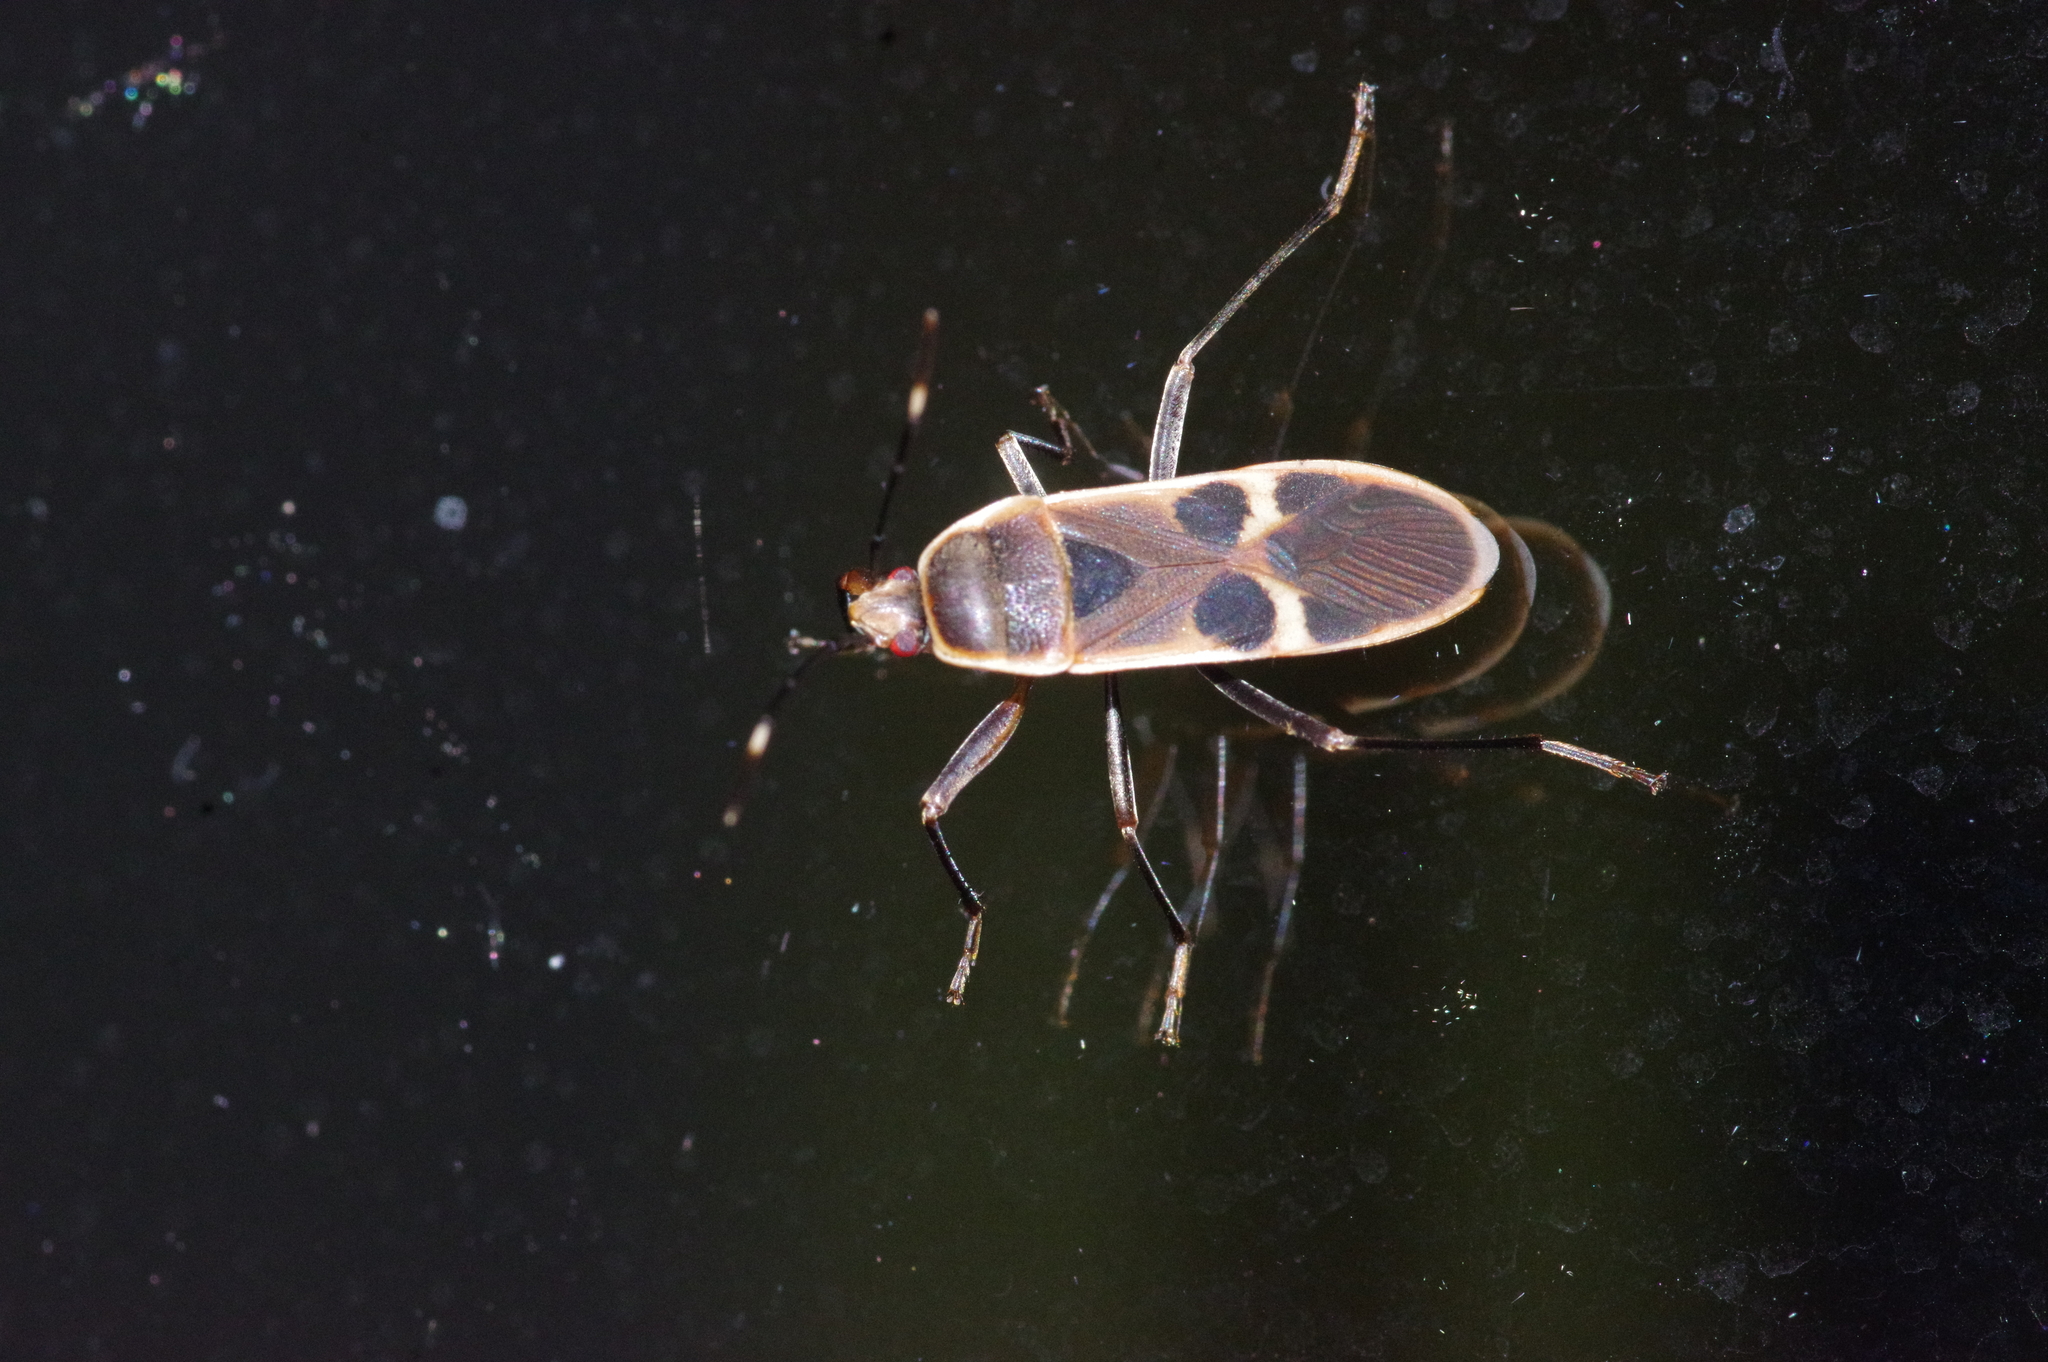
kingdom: Animalia
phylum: Arthropoda
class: Insecta
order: Hemiptera
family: Largidae
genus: Physopelta
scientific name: Physopelta gutta
